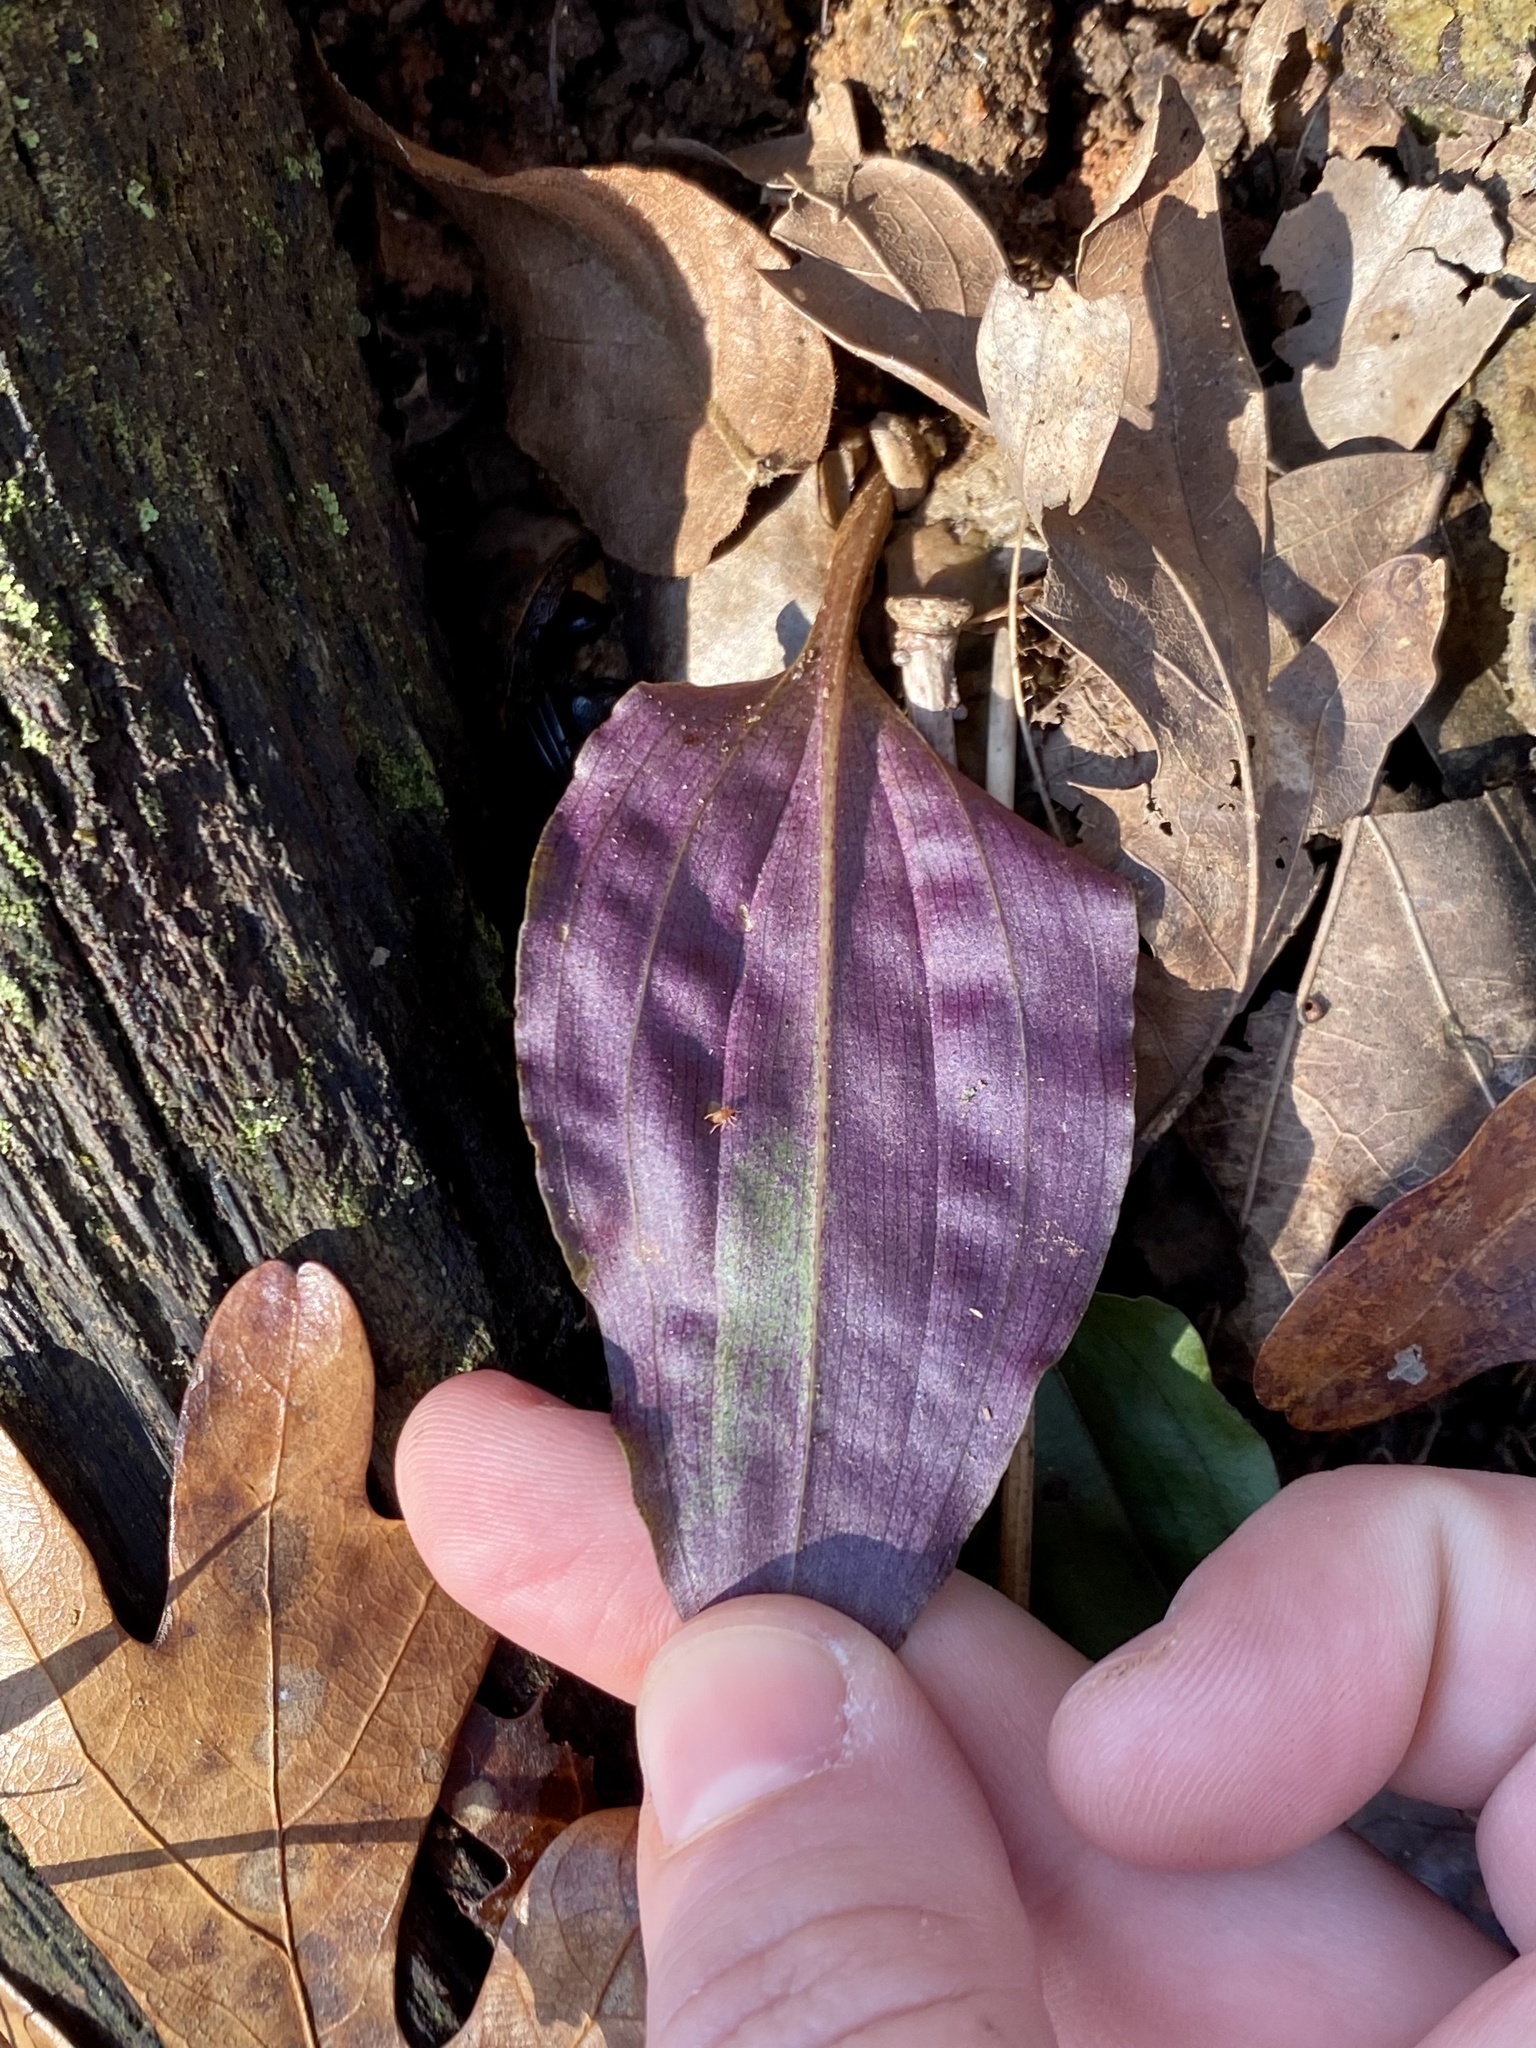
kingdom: Plantae
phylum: Tracheophyta
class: Liliopsida
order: Asparagales
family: Orchidaceae
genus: Tipularia
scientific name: Tipularia discolor
